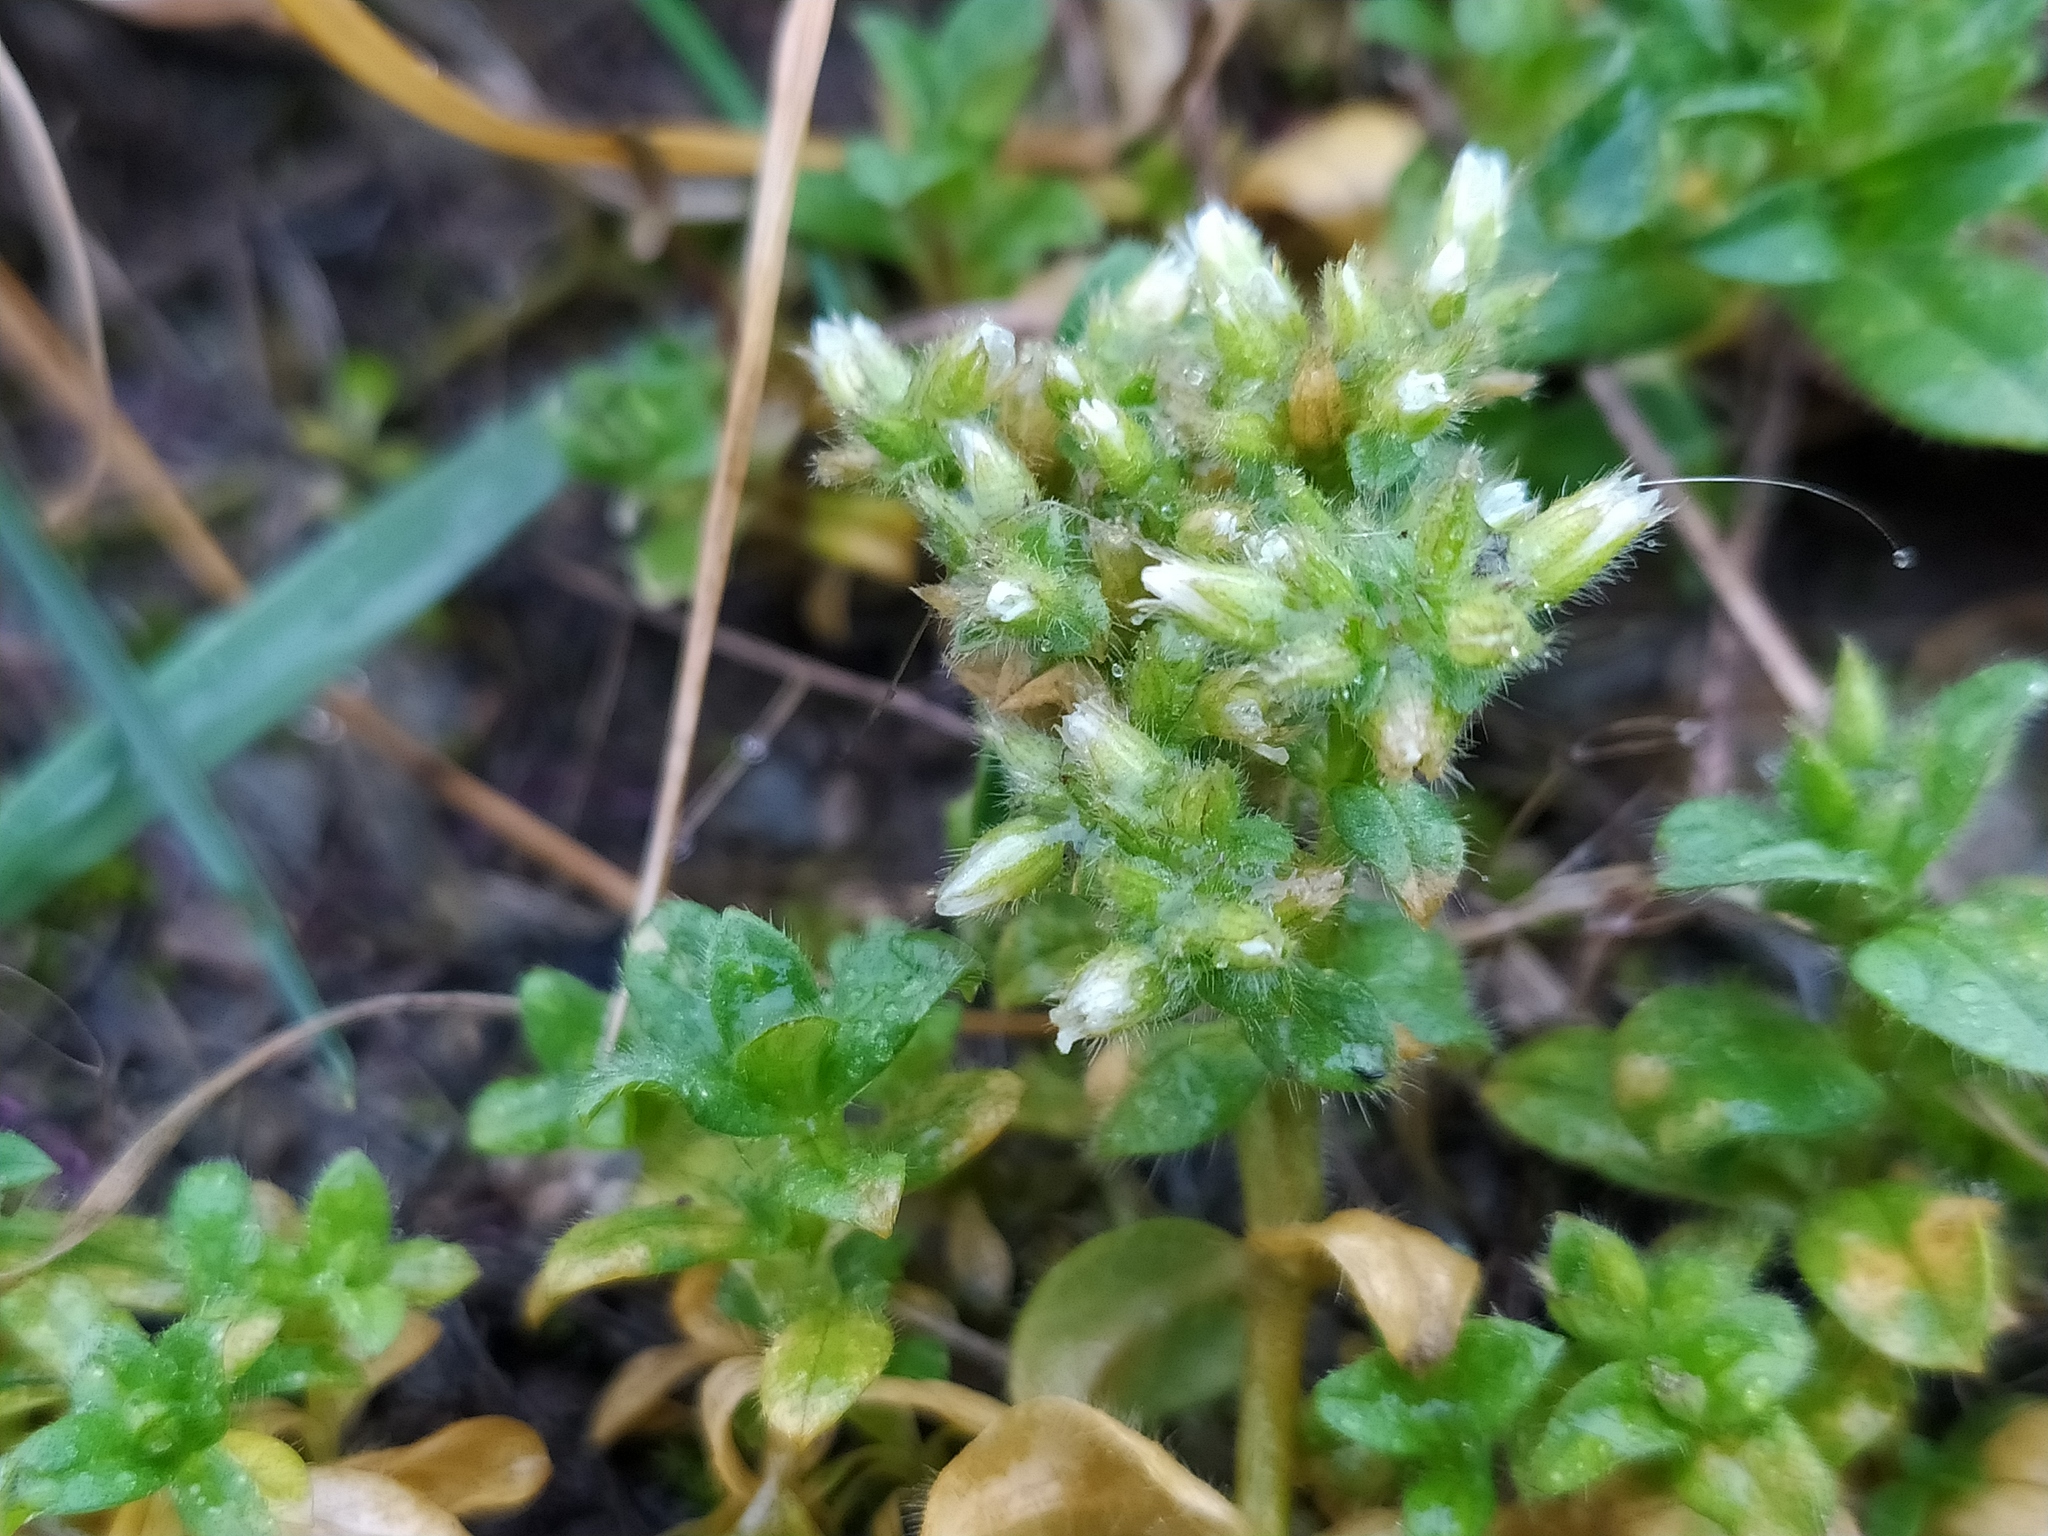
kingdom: Plantae
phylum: Tracheophyta
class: Magnoliopsida
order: Caryophyllales
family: Caryophyllaceae
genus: Cerastium
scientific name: Cerastium glomeratum
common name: Sticky chickweed
